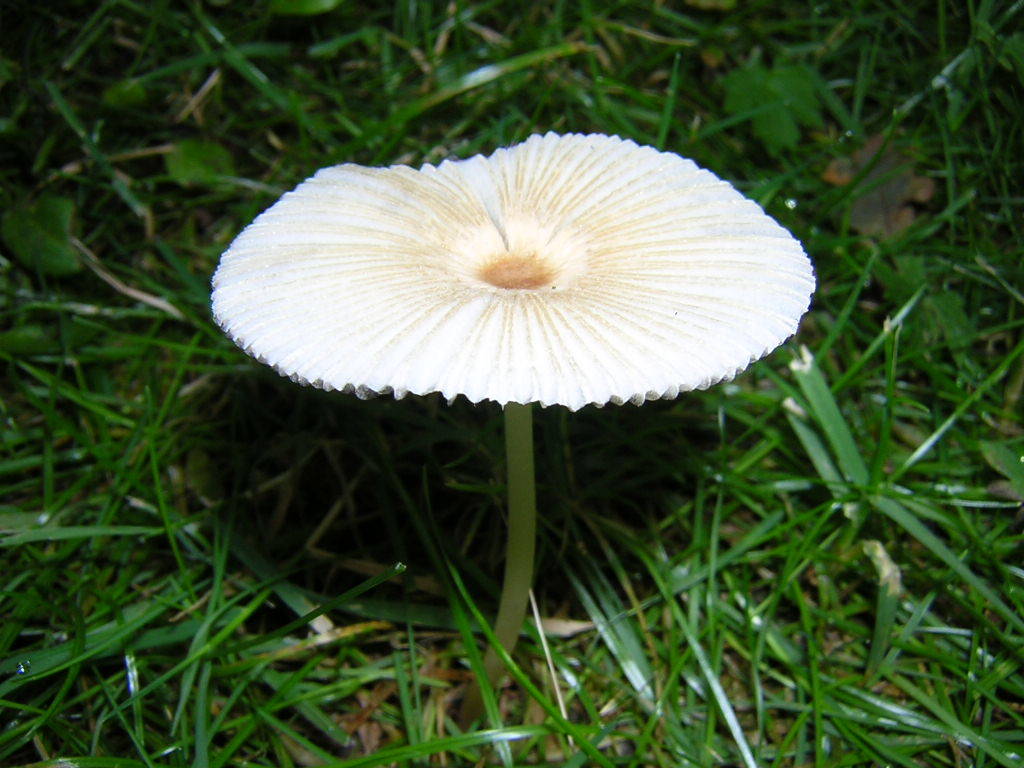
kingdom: Fungi
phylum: Basidiomycota
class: Agaricomycetes
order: Agaricales
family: Psathyrellaceae
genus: Parasola
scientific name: Parasola plicatilis
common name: Pleated inkcap
